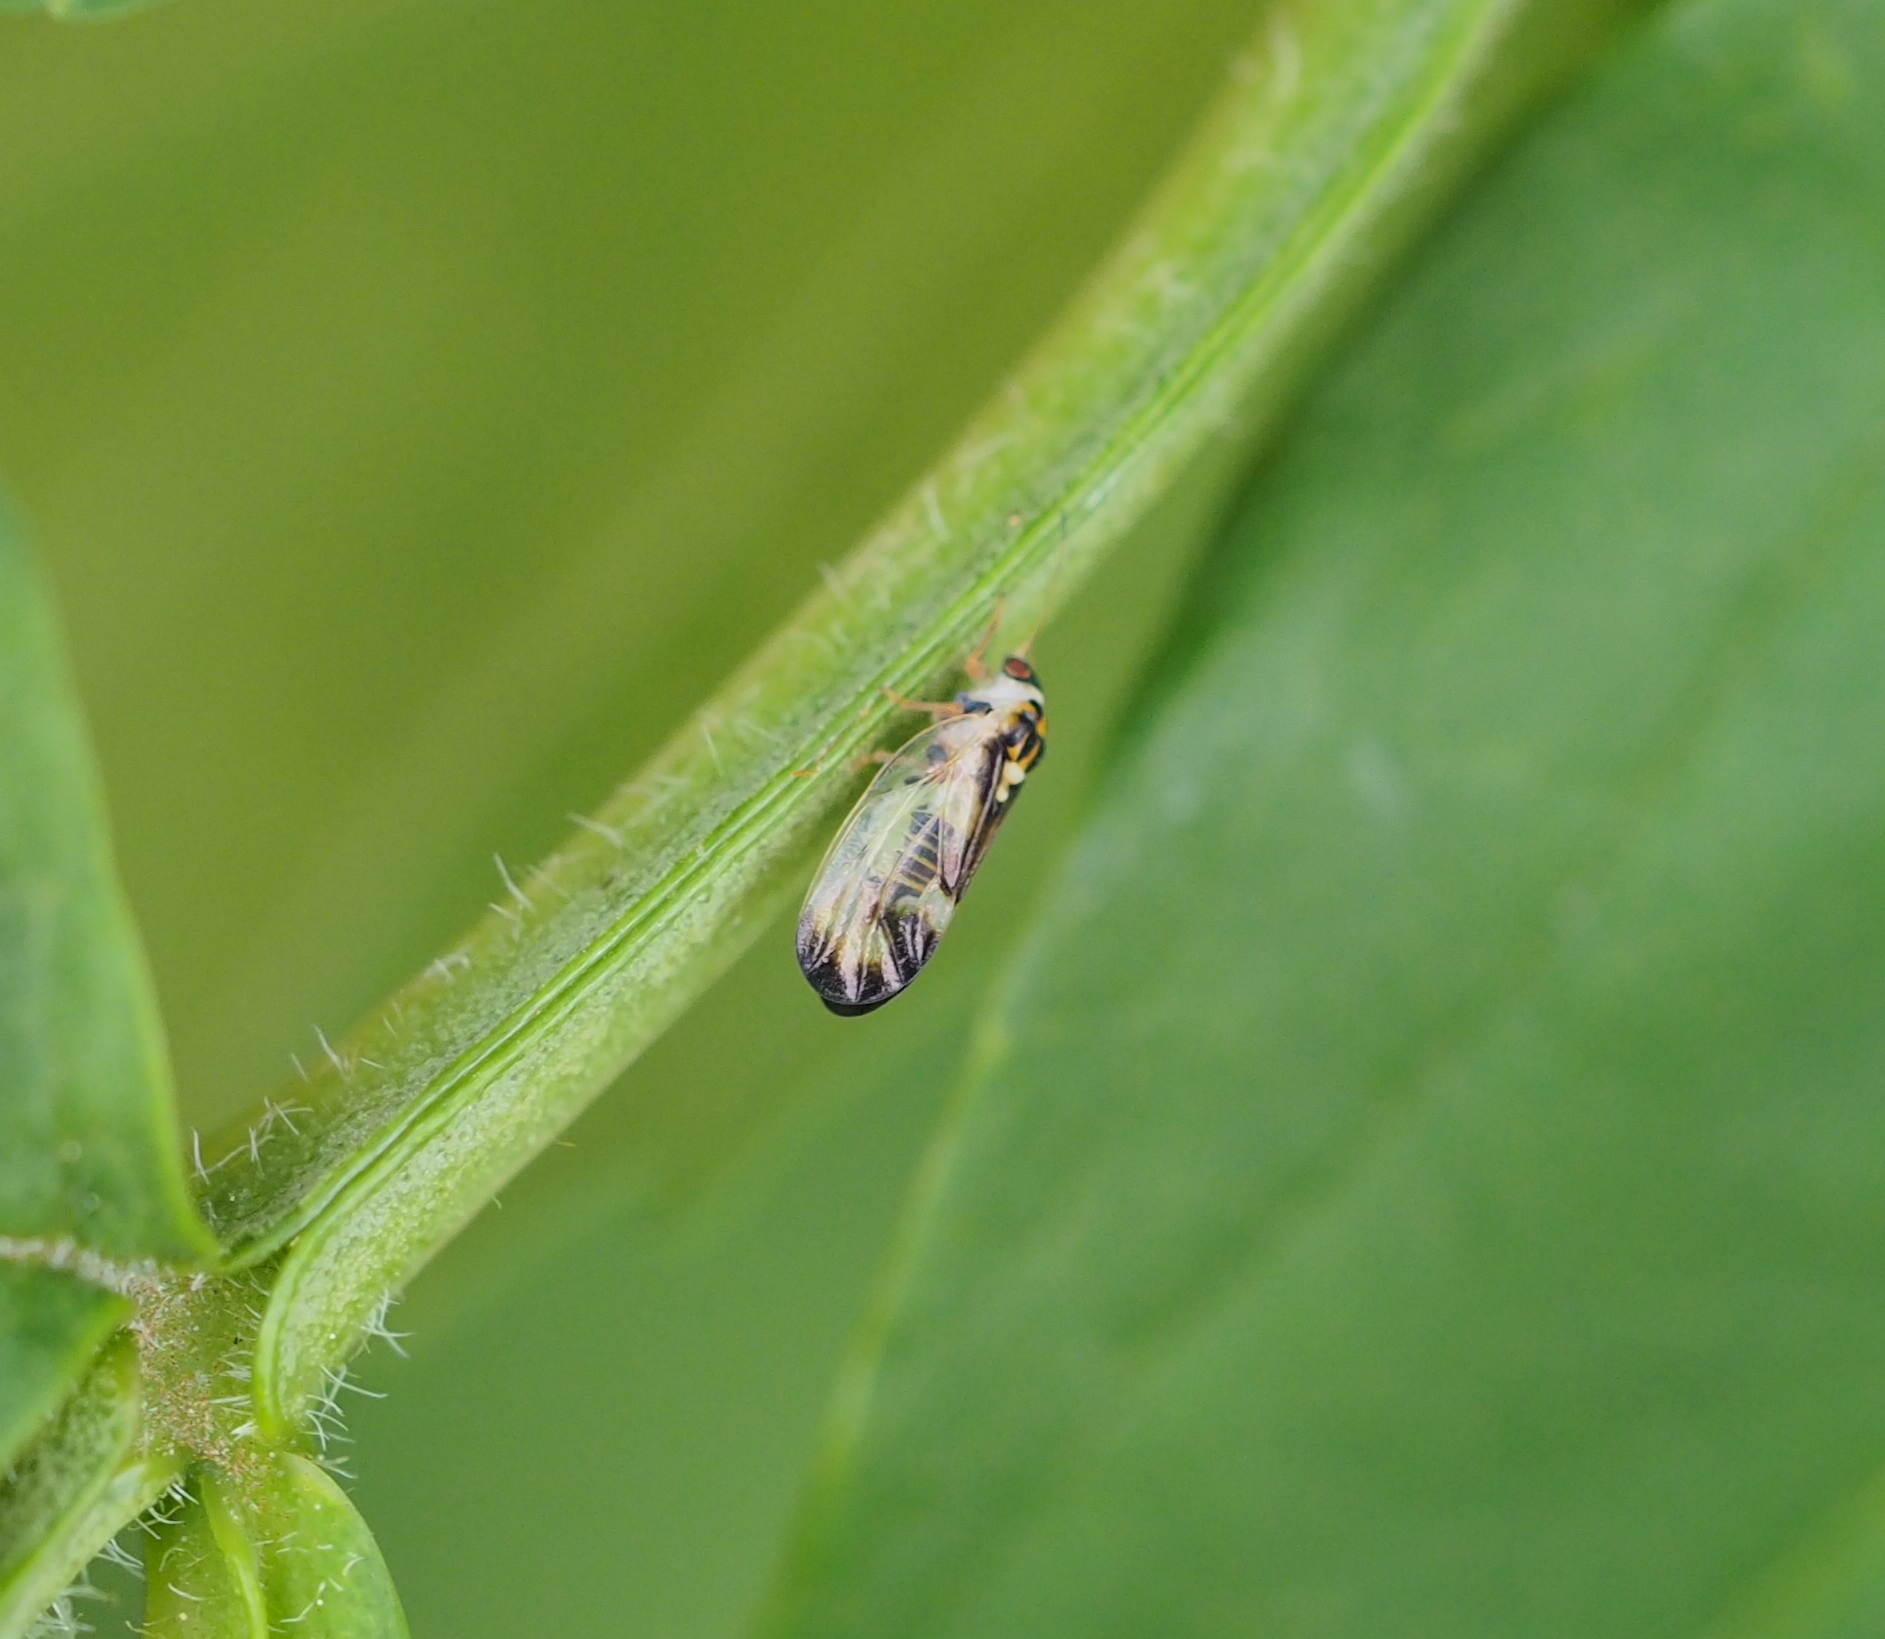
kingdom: Animalia
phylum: Arthropoda
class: Insecta
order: Hemiptera
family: Liviidae
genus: Psyllopsis
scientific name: Psyllopsis fraxini
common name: Jumping plant louse
